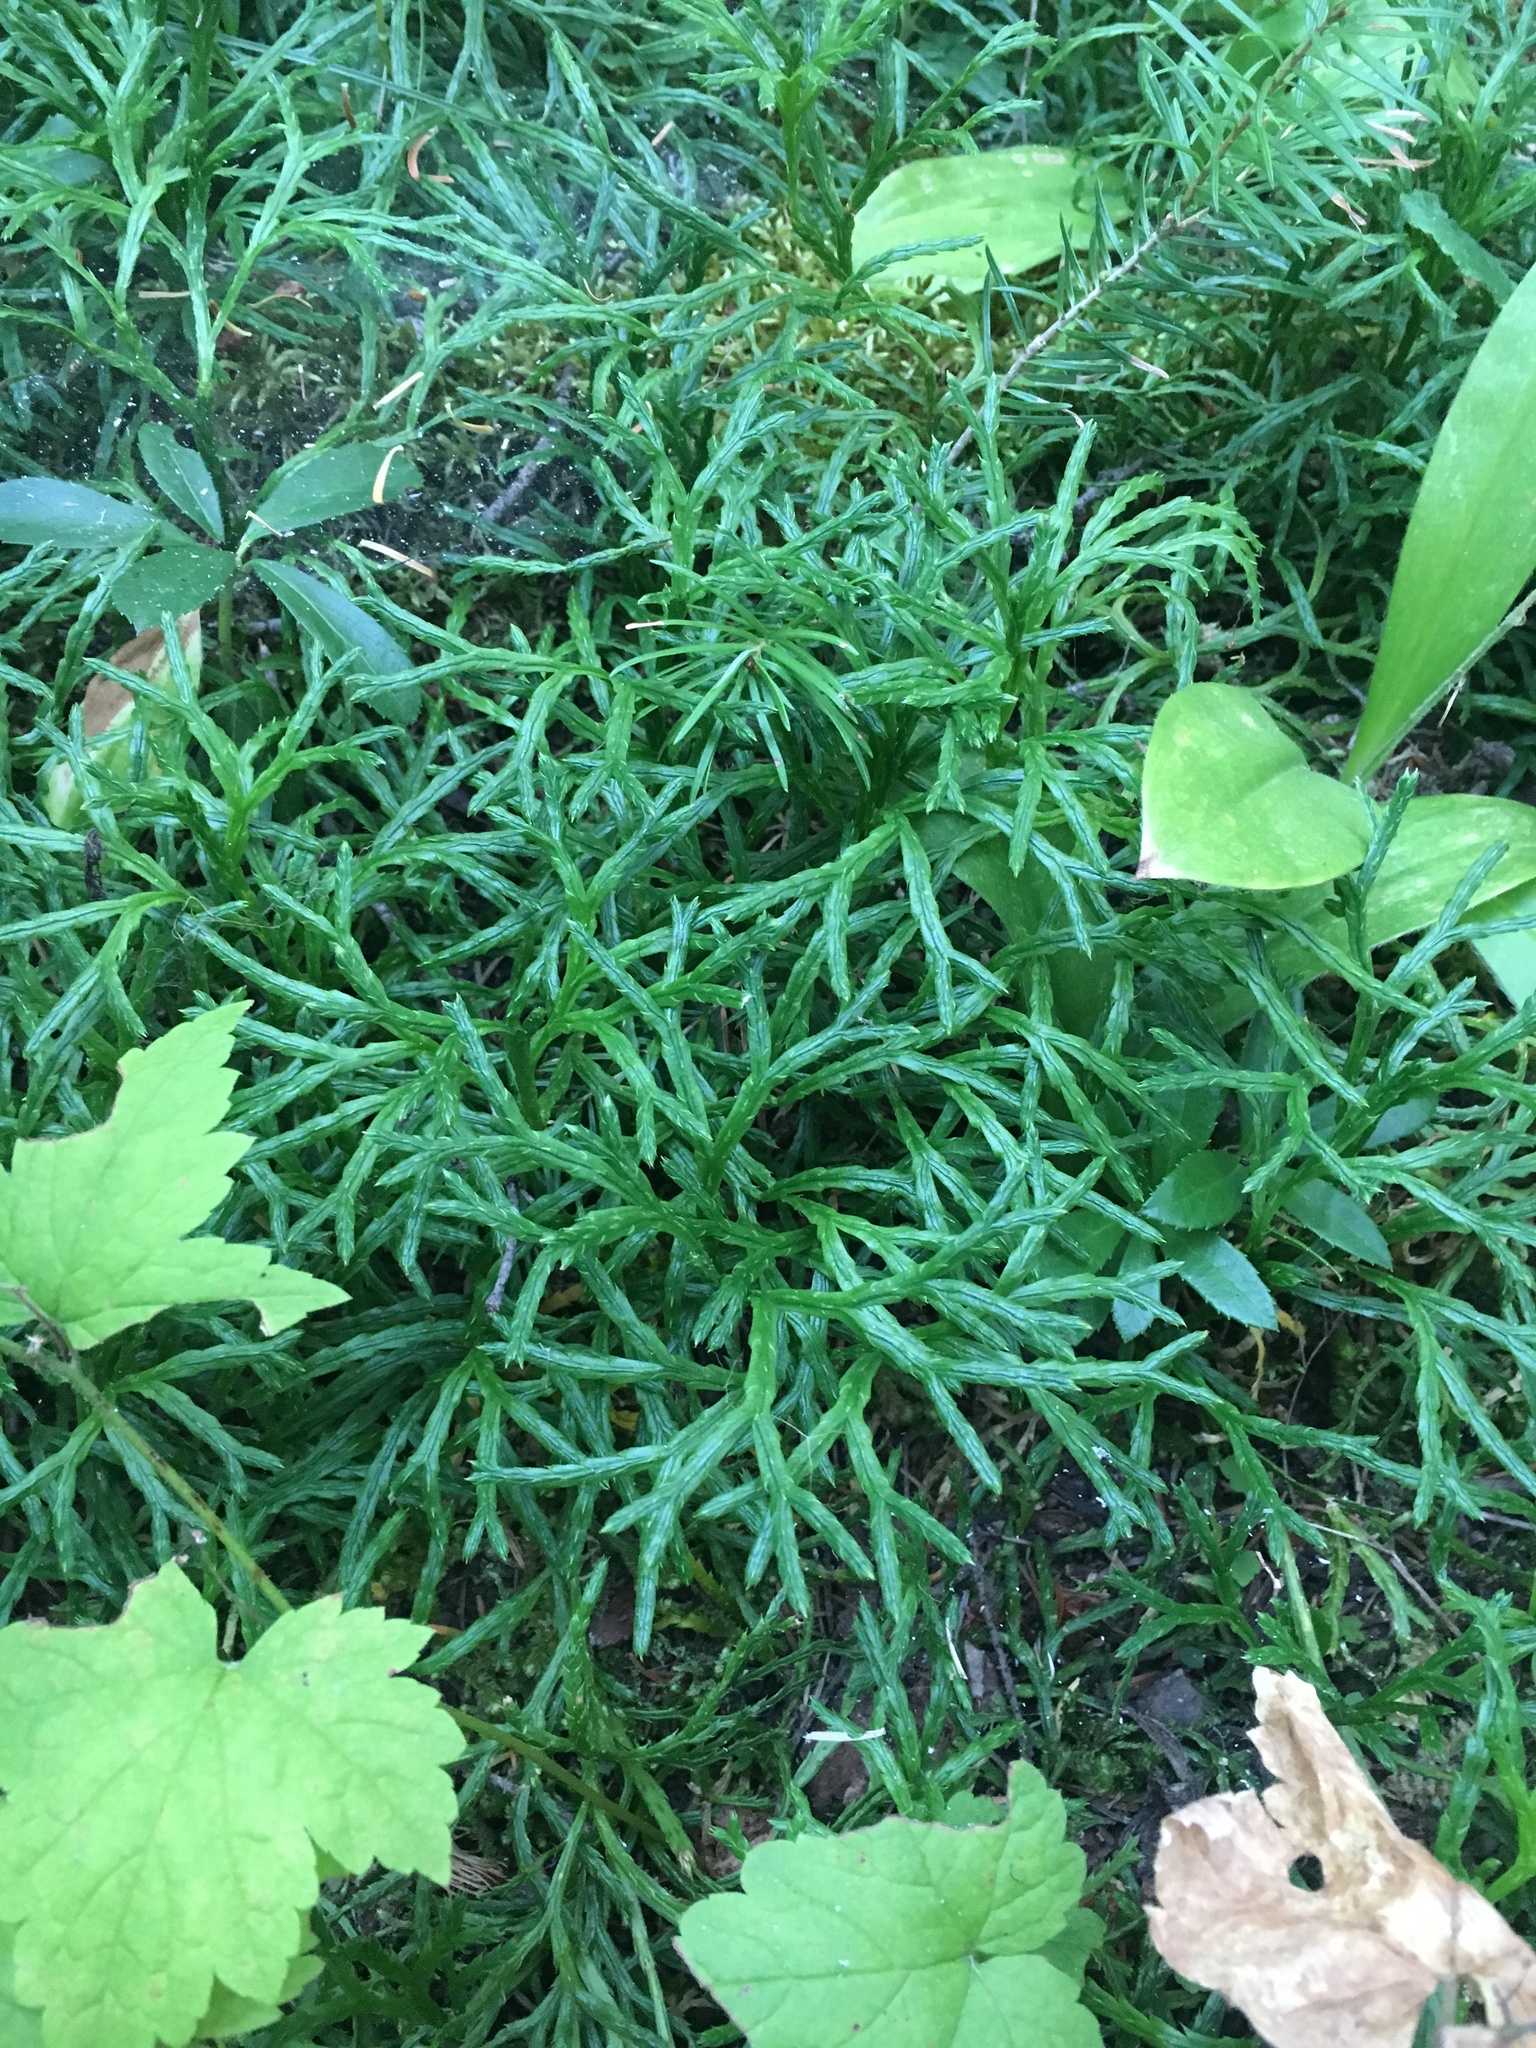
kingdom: Plantae
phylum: Tracheophyta
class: Lycopodiopsida
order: Lycopodiales
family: Lycopodiaceae
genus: Diphasiastrum
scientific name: Diphasiastrum complanatum
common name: Northern running-pine
